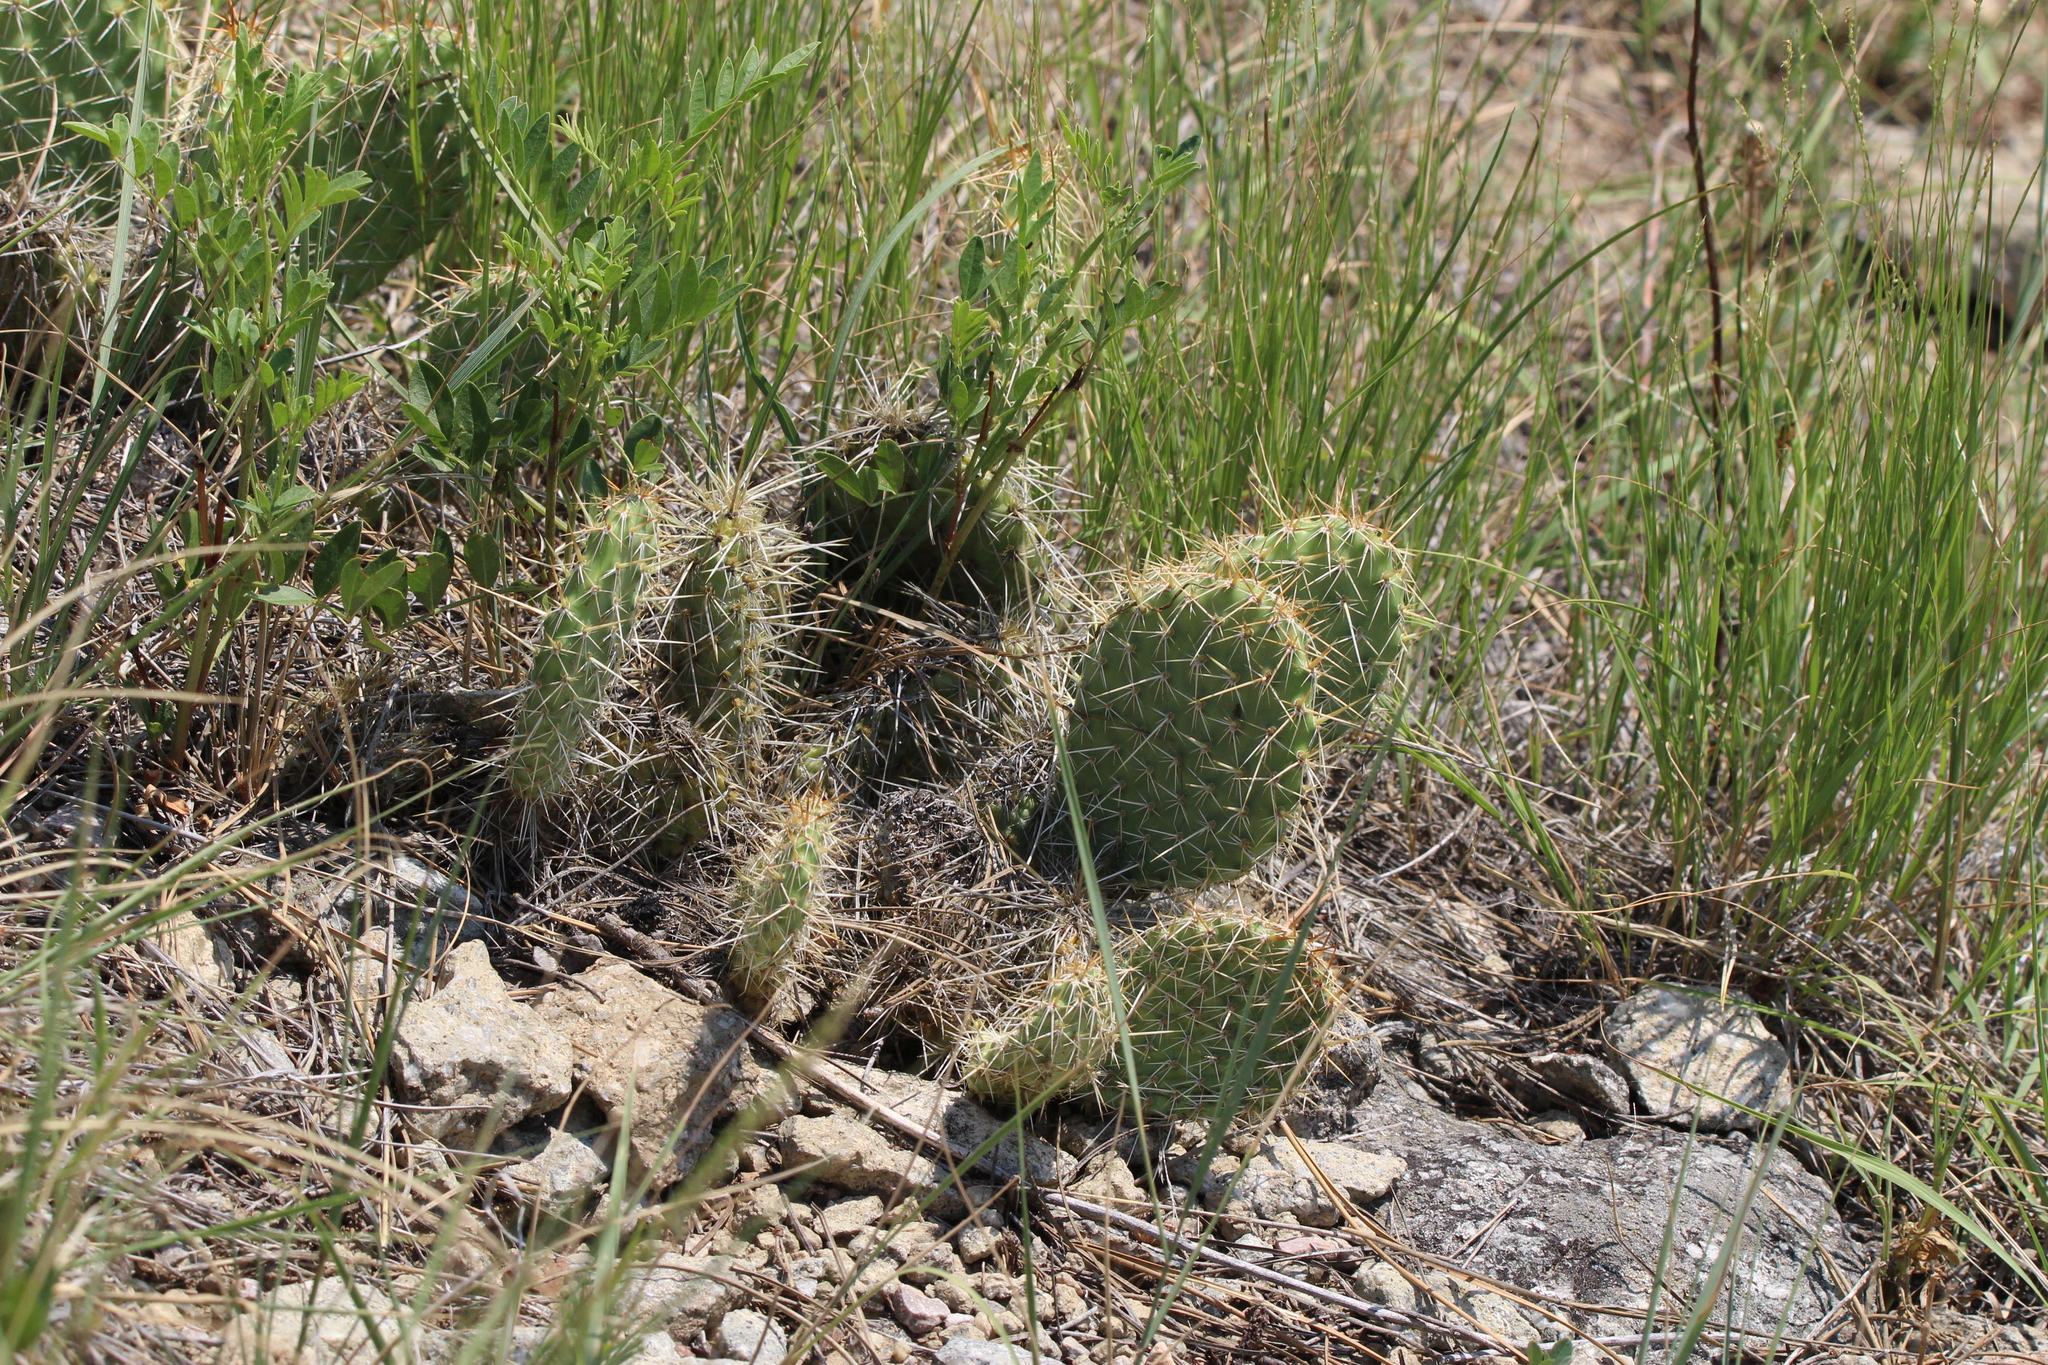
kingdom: Plantae
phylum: Tracheophyta
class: Magnoliopsida
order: Caryophyllales
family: Cactaceae
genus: Opuntia
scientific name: Opuntia polyacantha
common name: Plains prickly-pear
